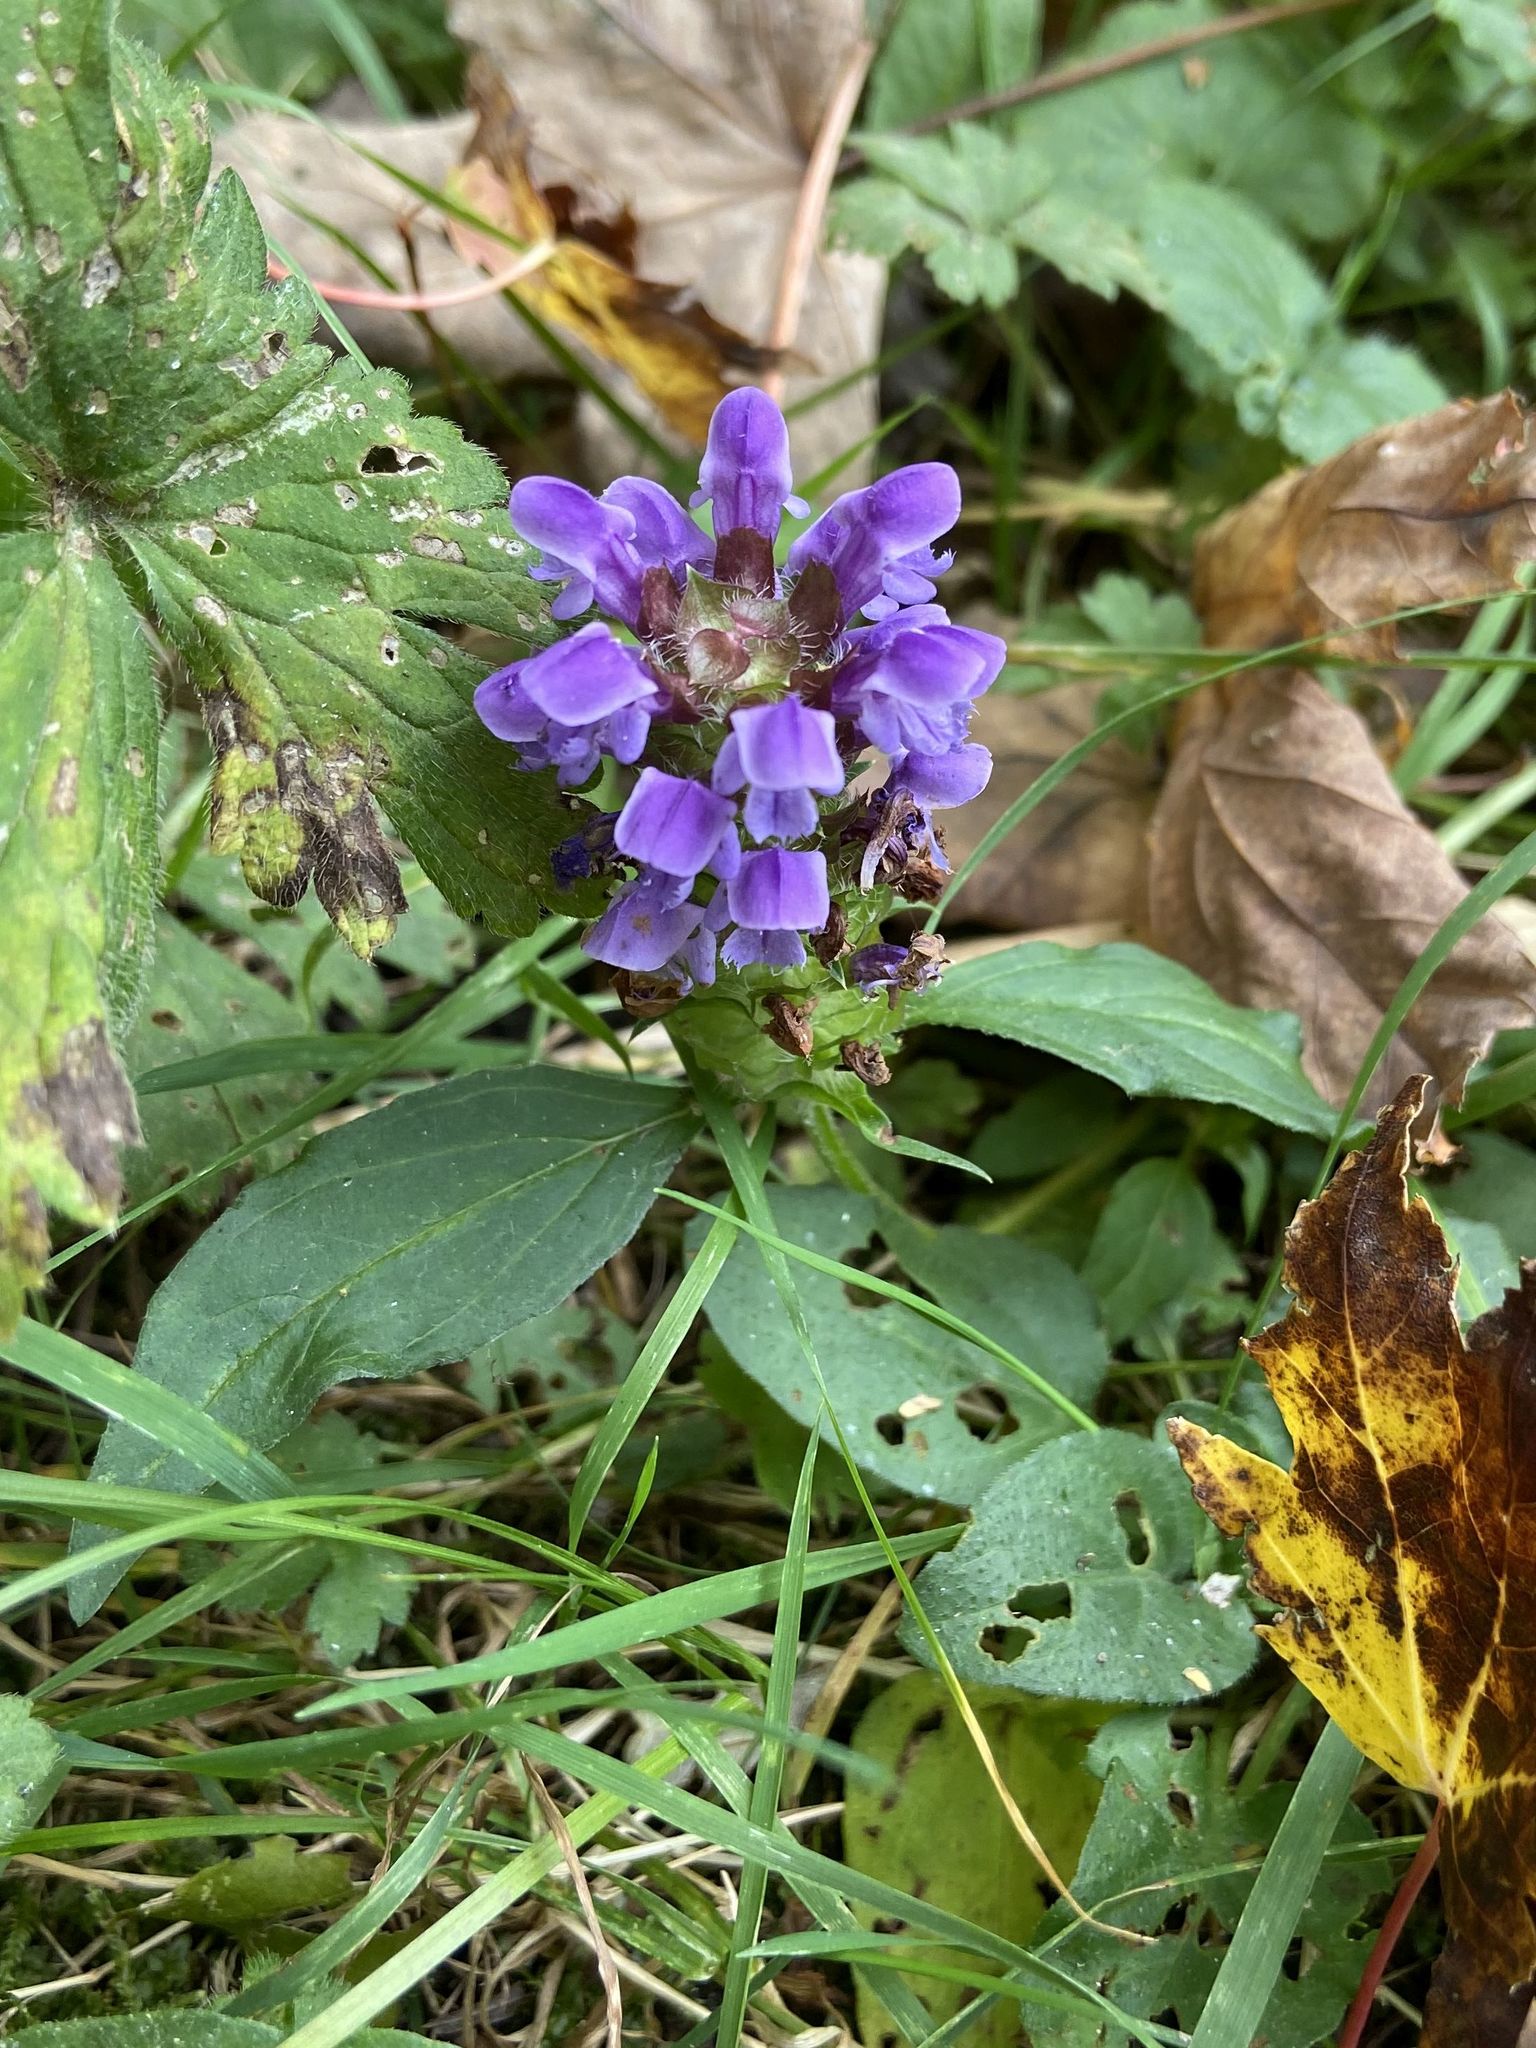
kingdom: Plantae
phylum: Tracheophyta
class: Magnoliopsida
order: Lamiales
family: Lamiaceae
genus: Prunella
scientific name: Prunella vulgaris
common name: Heal-all
